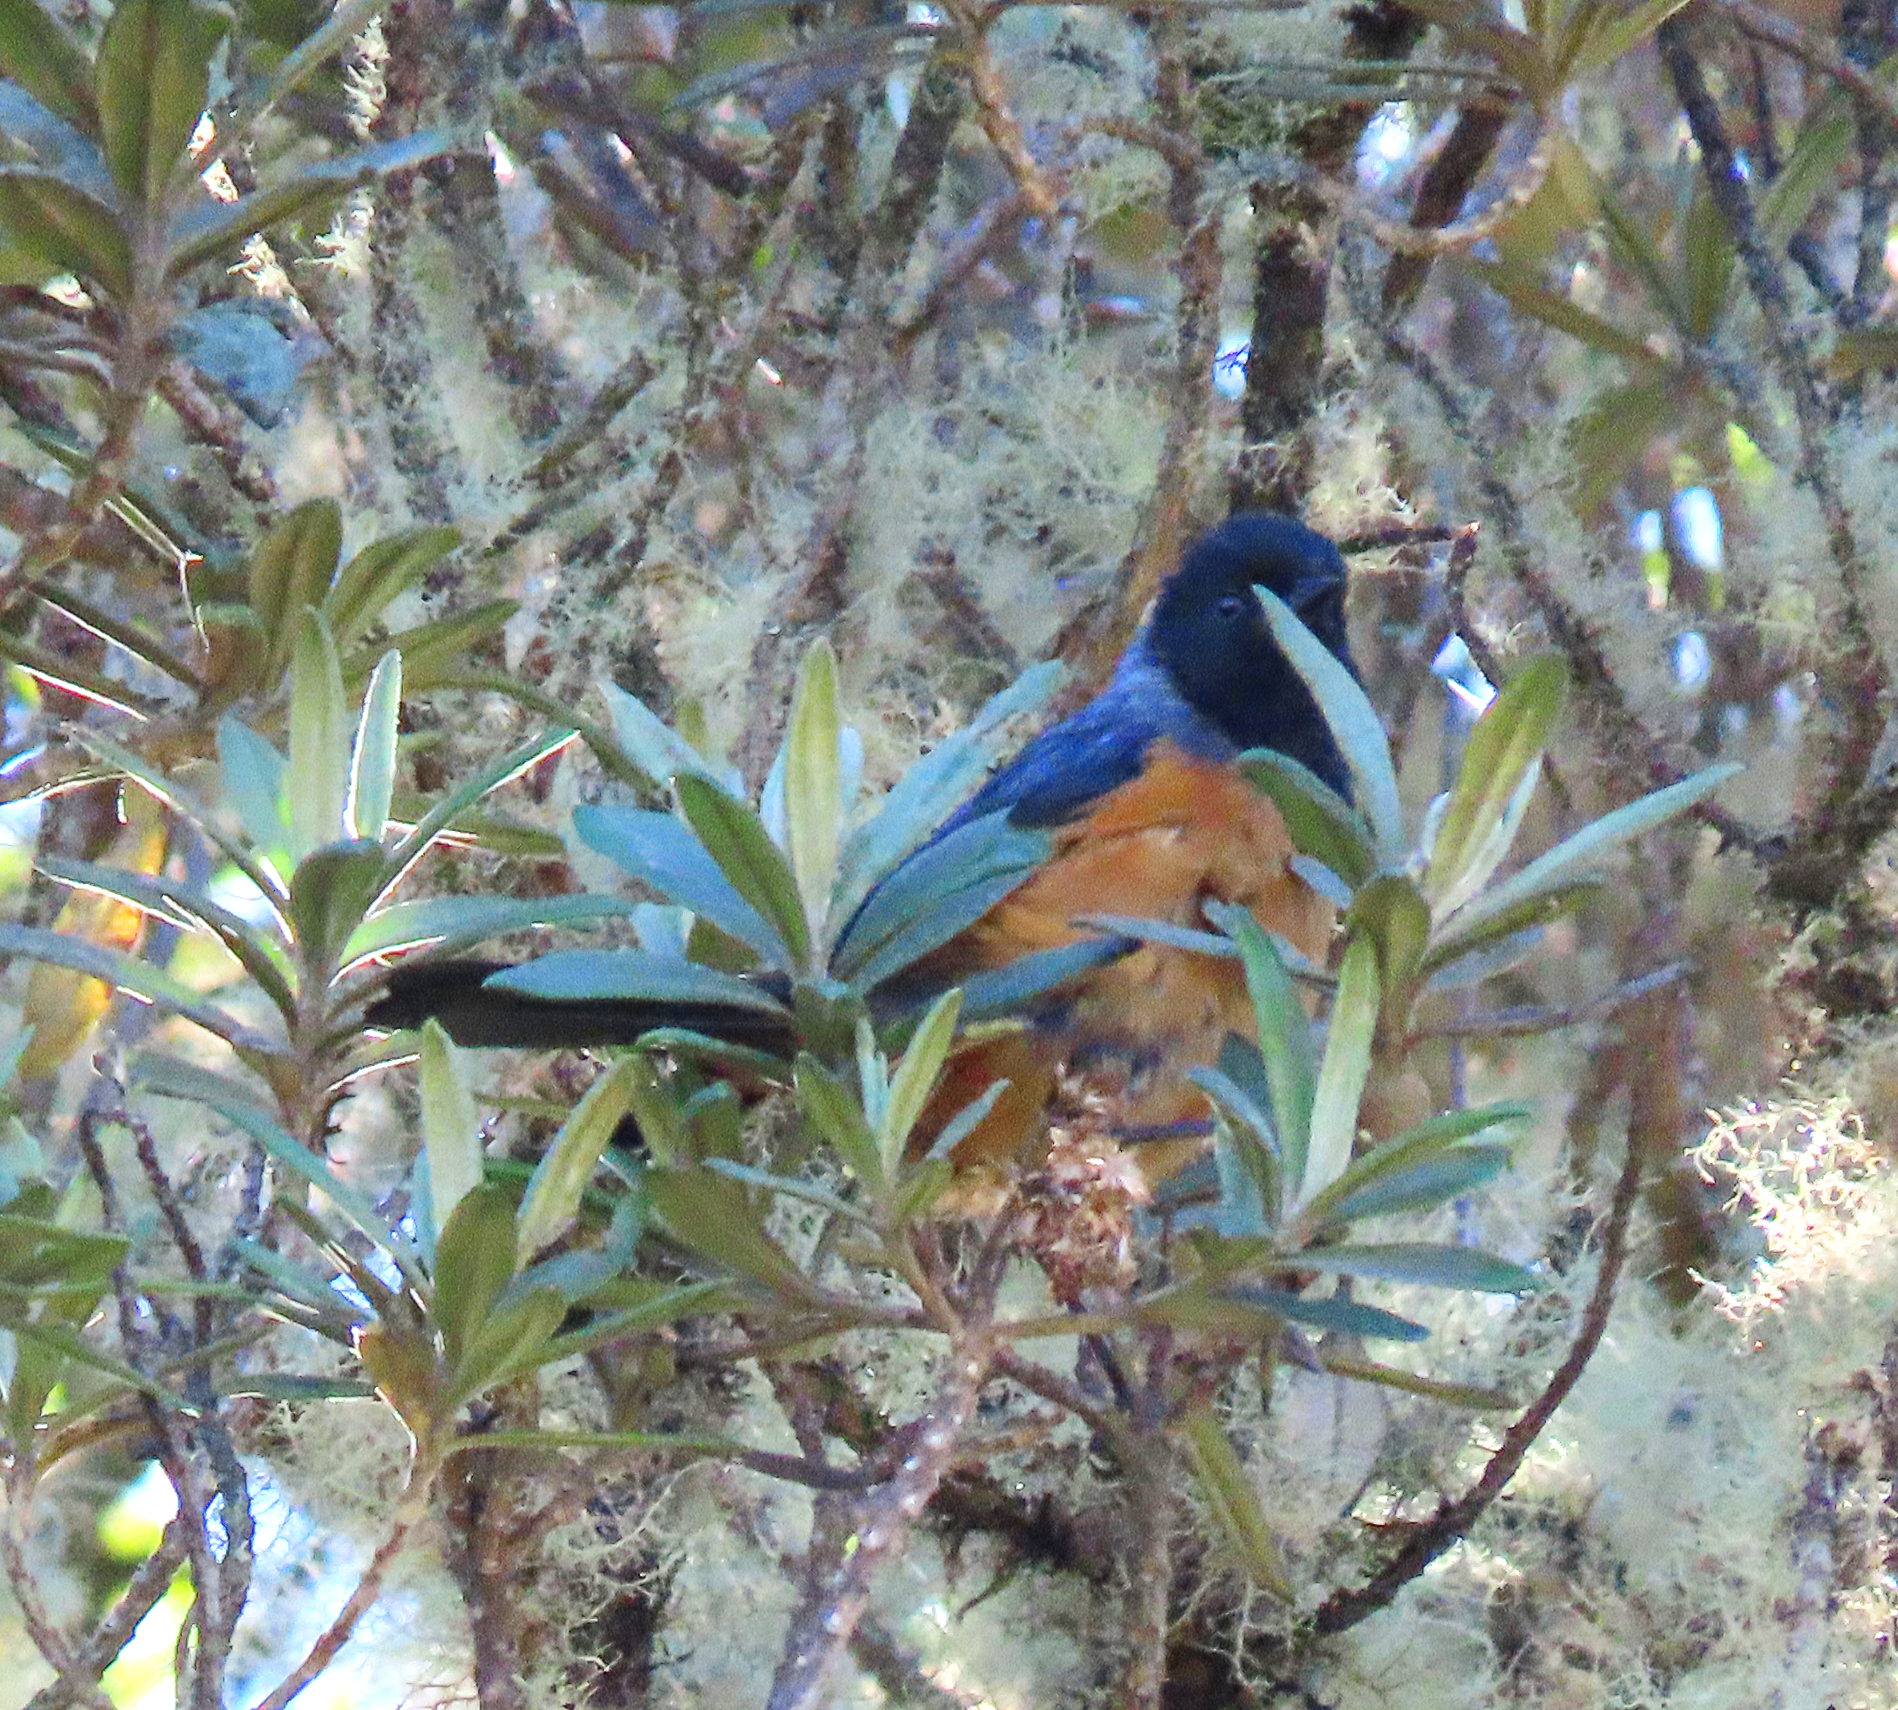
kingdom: Animalia
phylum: Chordata
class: Aves
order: Passeriformes
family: Thraupidae
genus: Conirostrum
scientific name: Conirostrum sitticolor
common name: Blue-backed conebill
